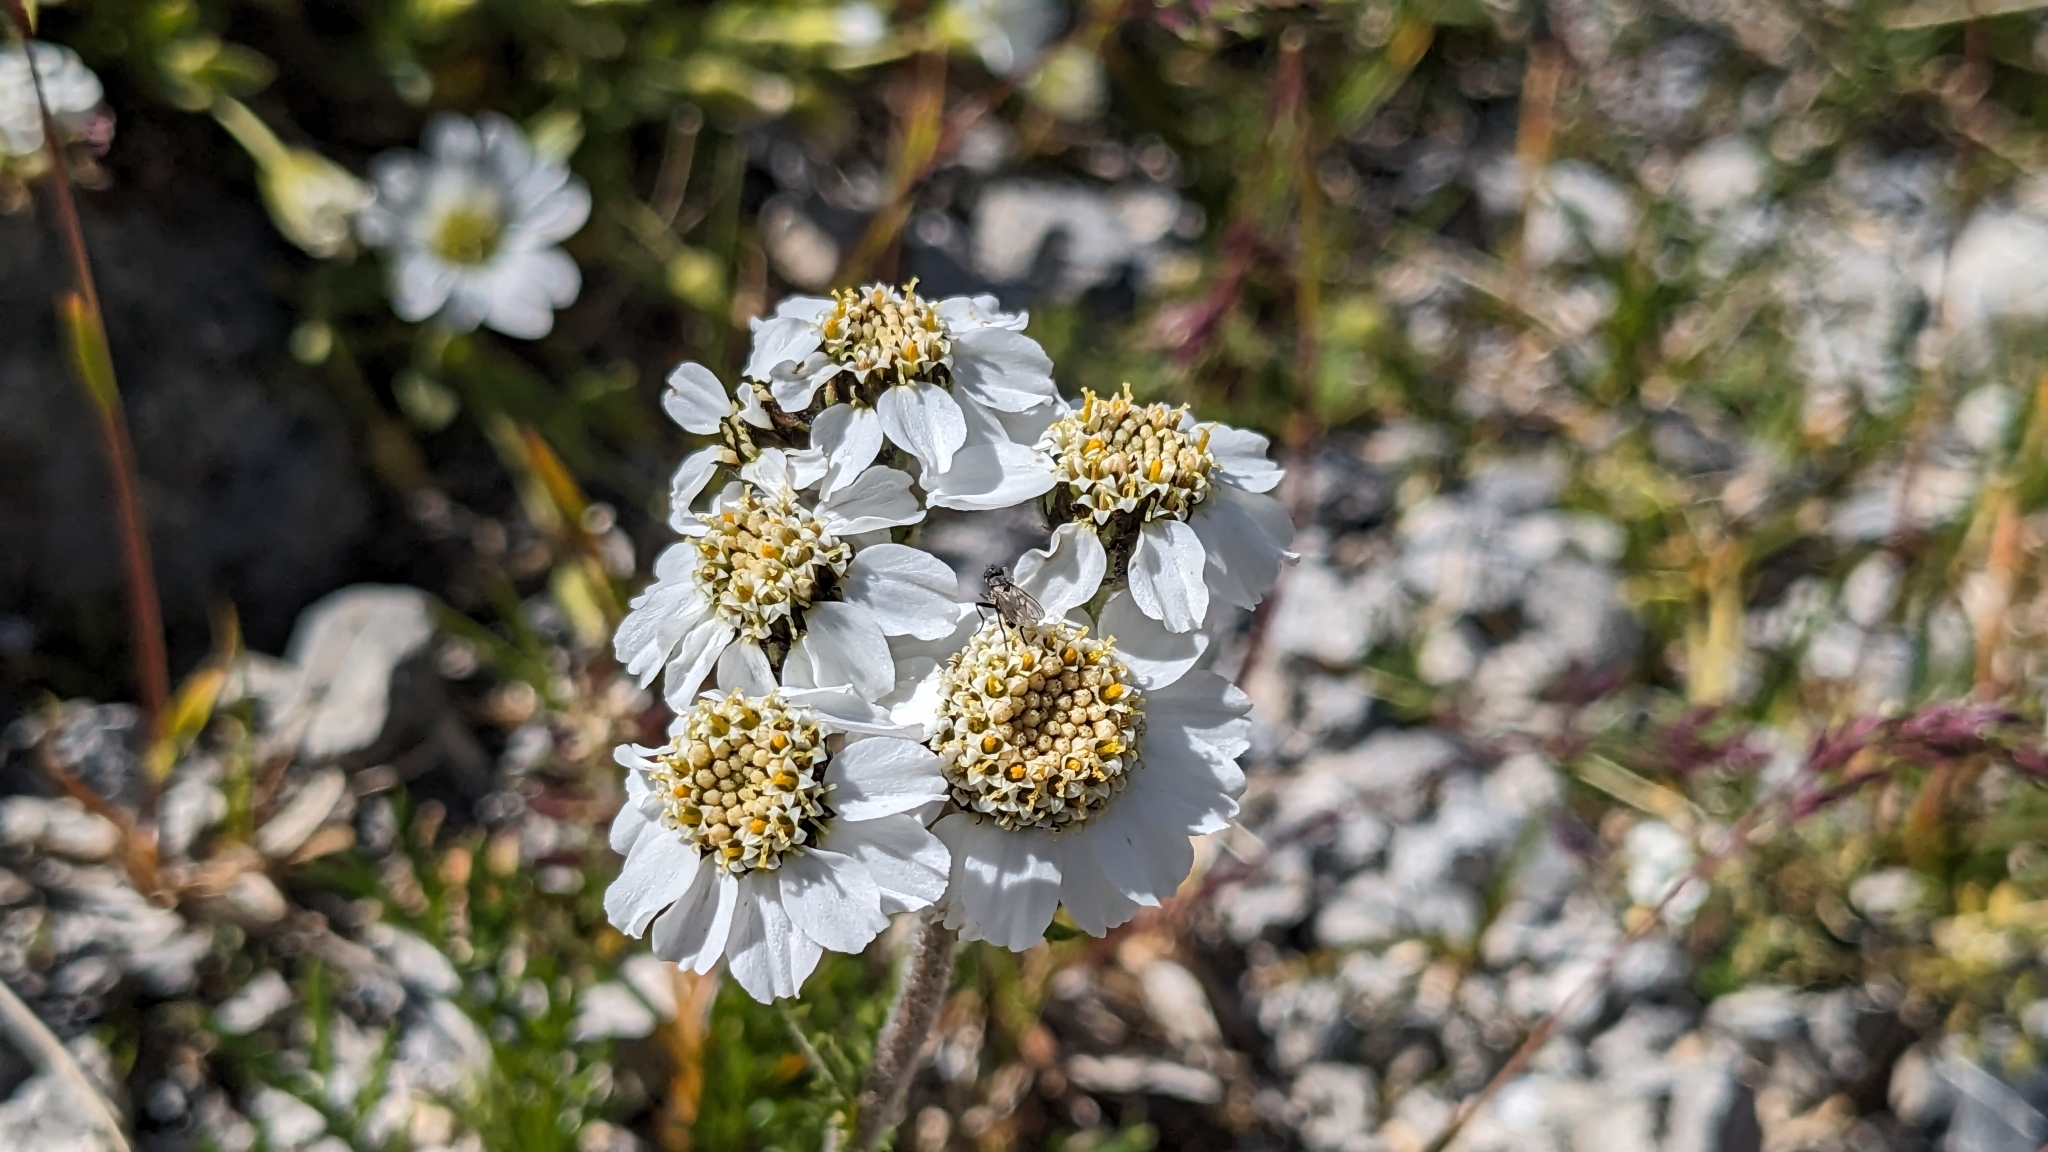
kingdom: Plantae
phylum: Tracheophyta
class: Magnoliopsida
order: Asterales
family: Asteraceae
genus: Achillea
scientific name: Achillea atrata
